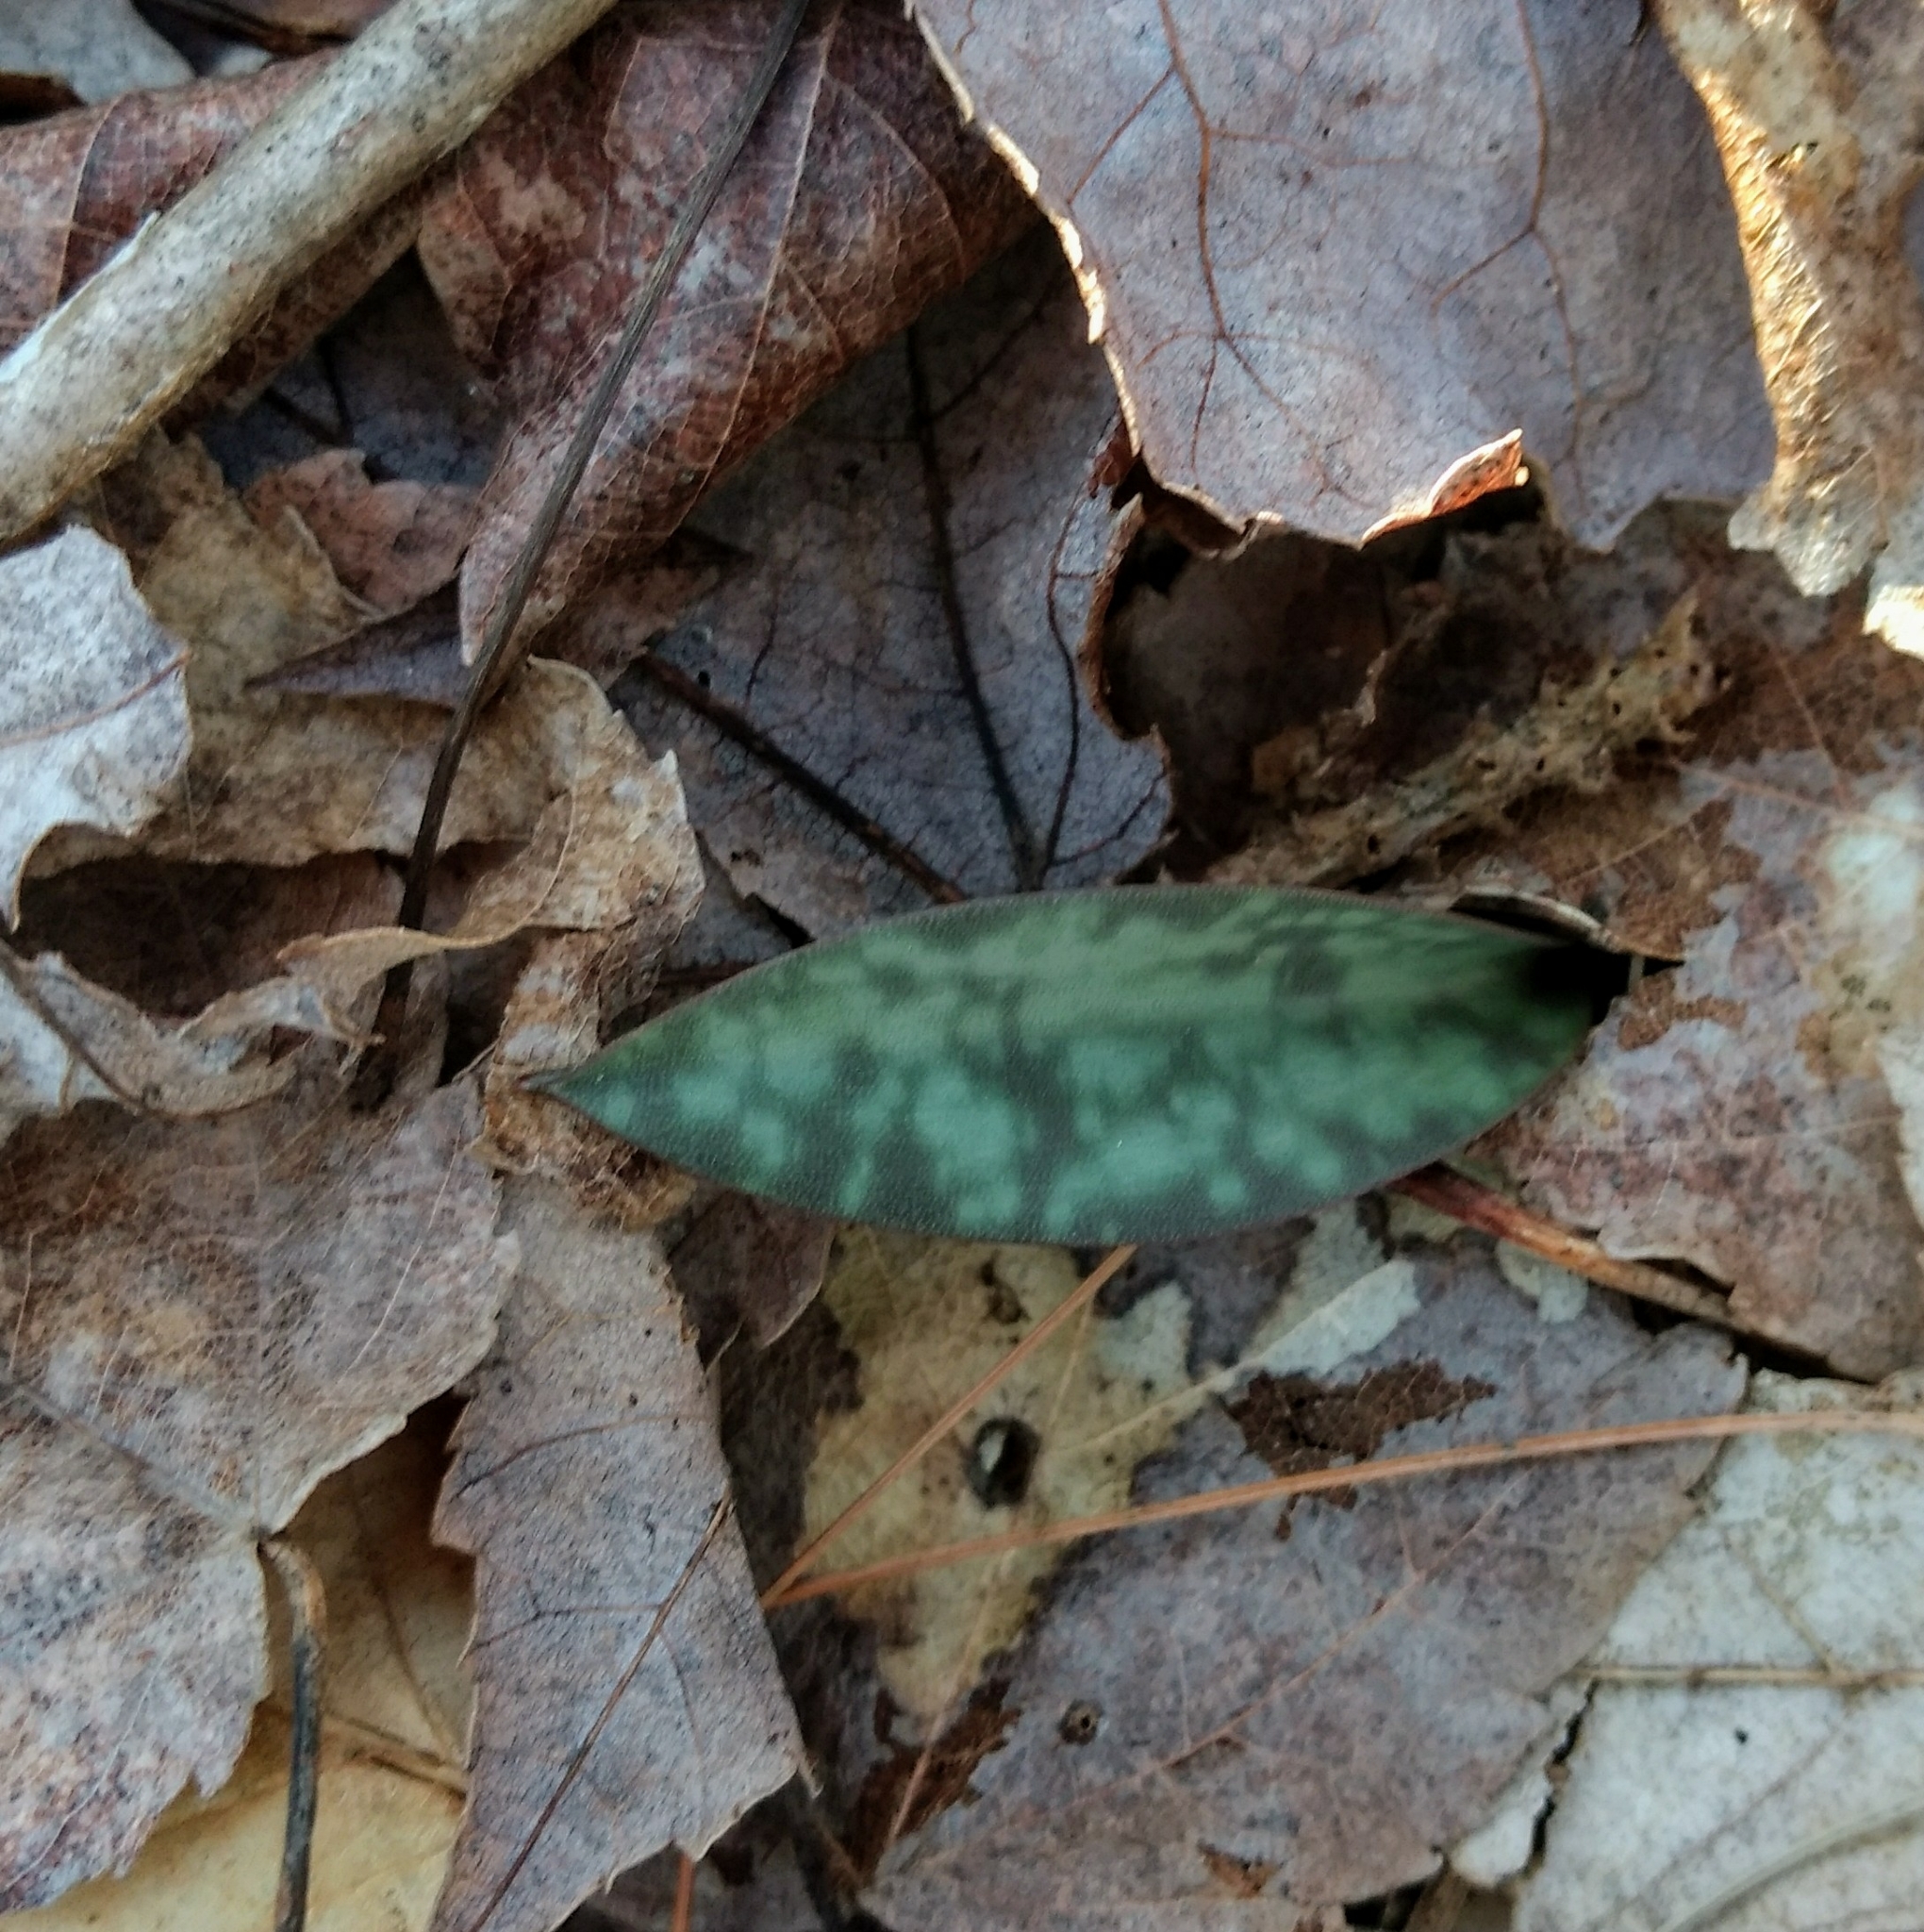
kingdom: Plantae
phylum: Tracheophyta
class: Liliopsida
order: Liliales
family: Liliaceae
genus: Erythronium
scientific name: Erythronium americanum
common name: Yellow adder's-tongue
